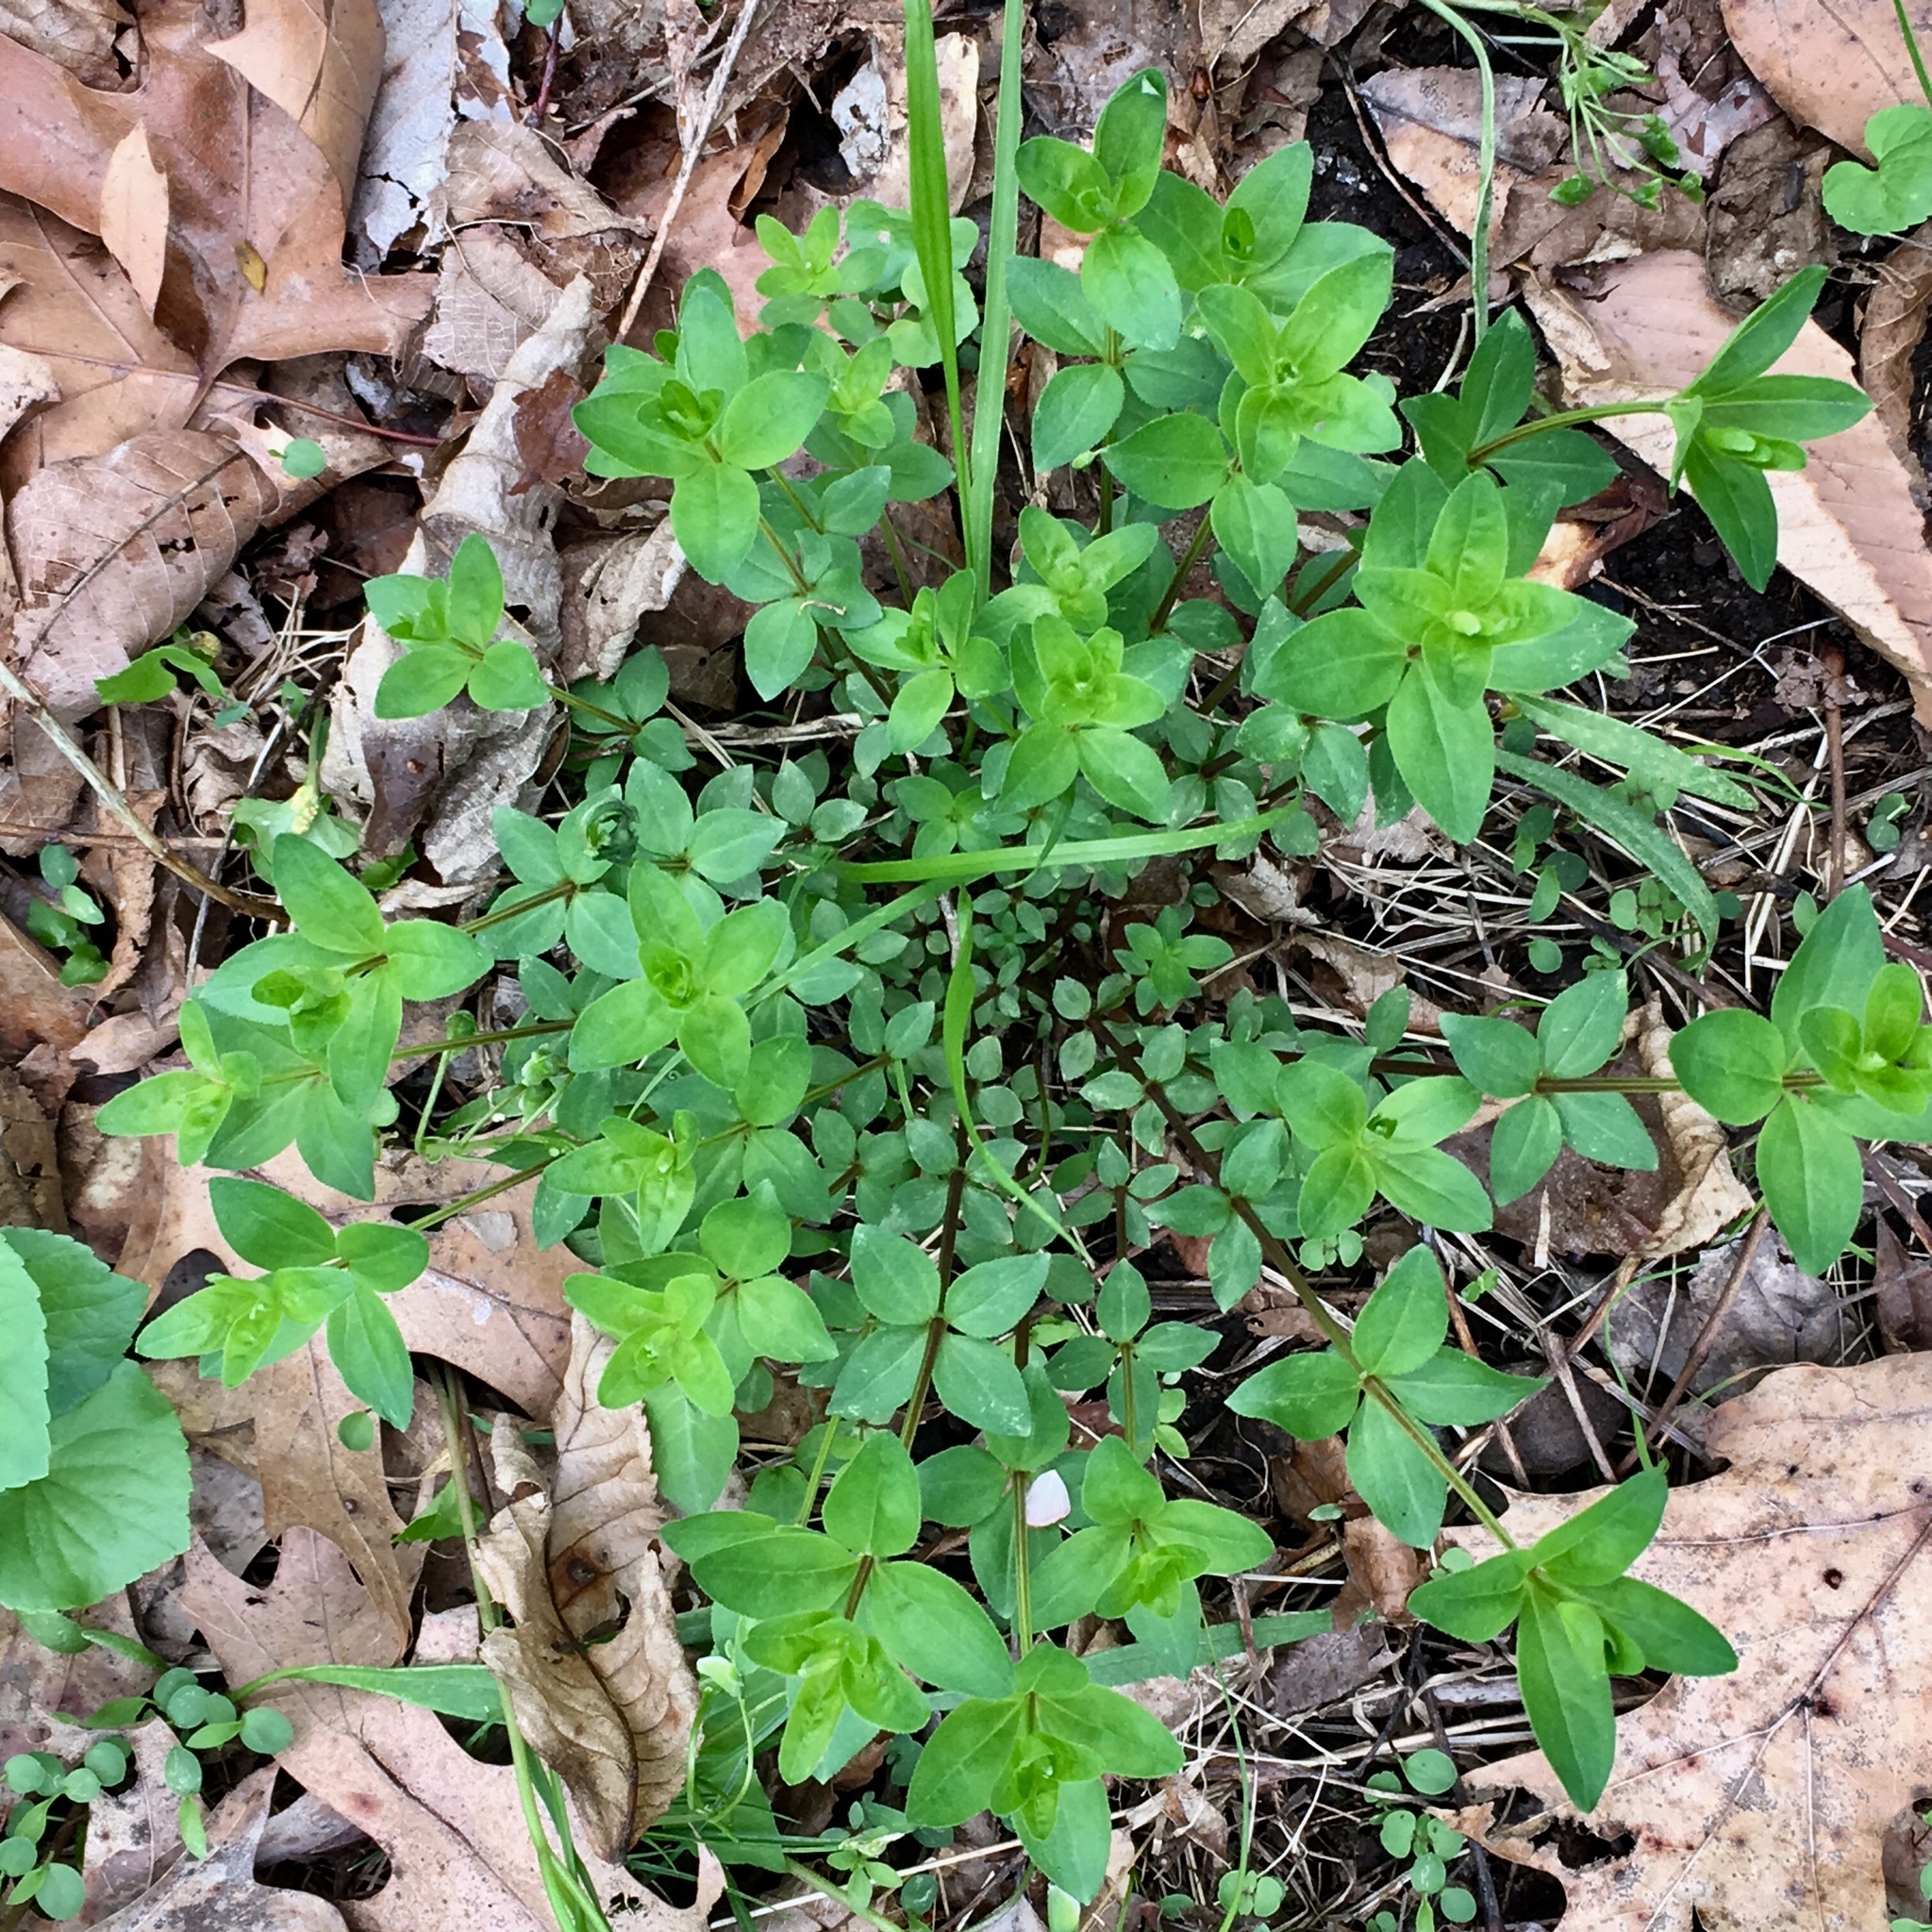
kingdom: Plantae
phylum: Tracheophyta
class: Magnoliopsida
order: Gentianales
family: Rubiaceae
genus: Galium
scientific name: Galium pilosum
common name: Hairy bedstraw
